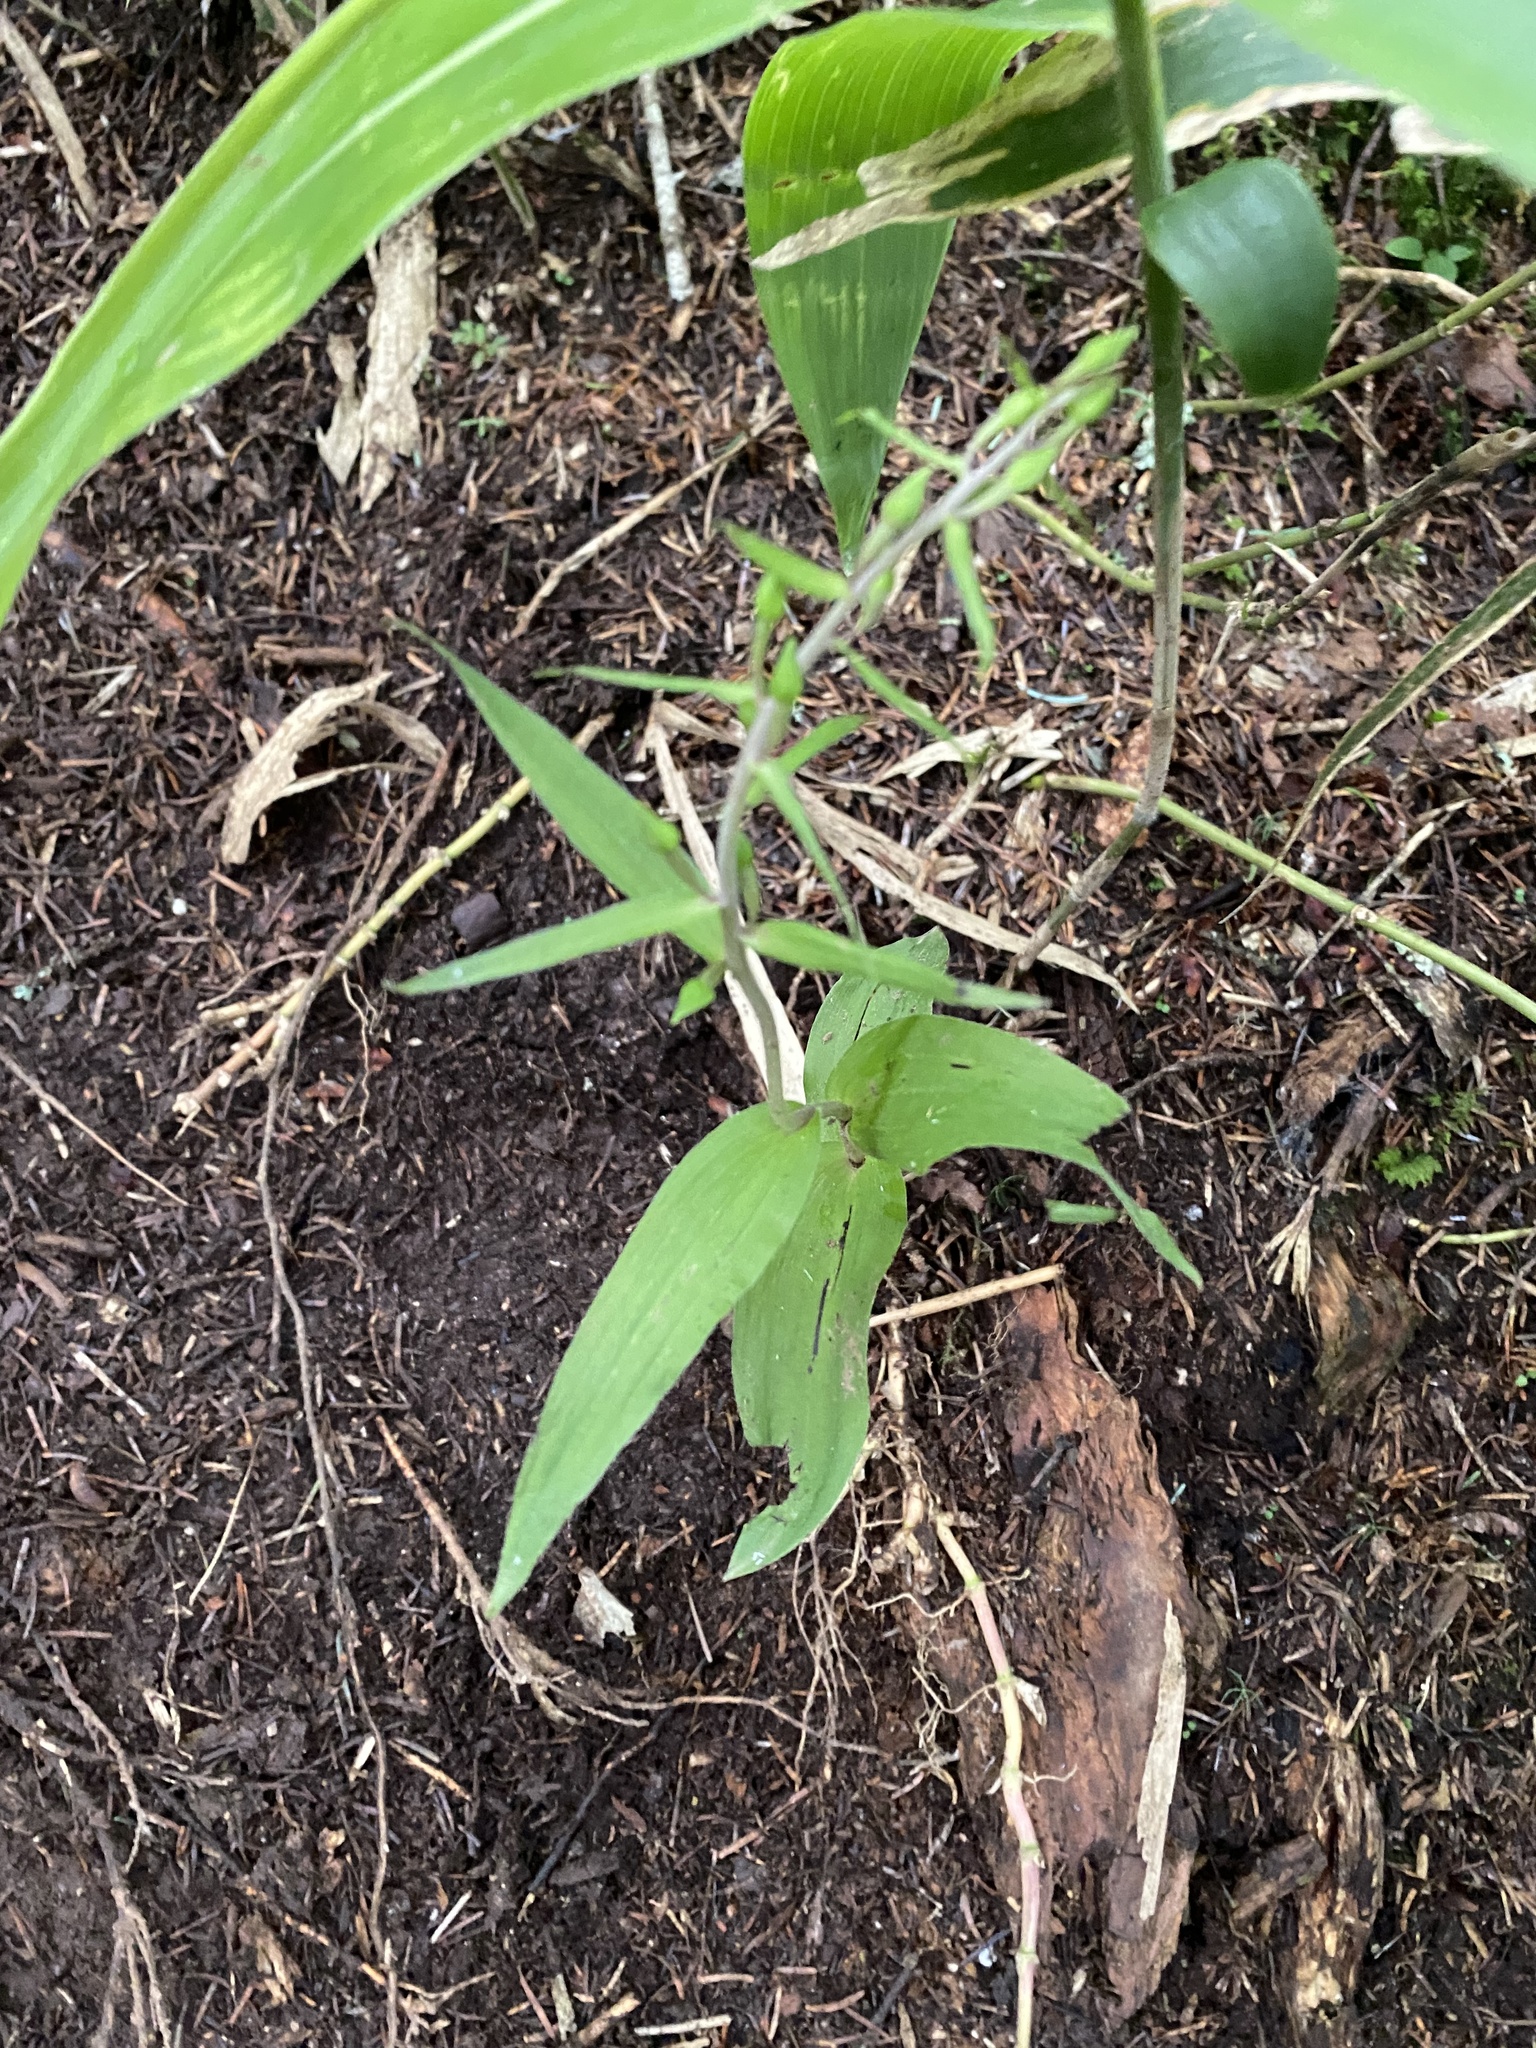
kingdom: Plantae
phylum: Tracheophyta
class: Liliopsida
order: Asparagales
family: Orchidaceae
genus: Epipactis
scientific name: Epipactis papillosa
